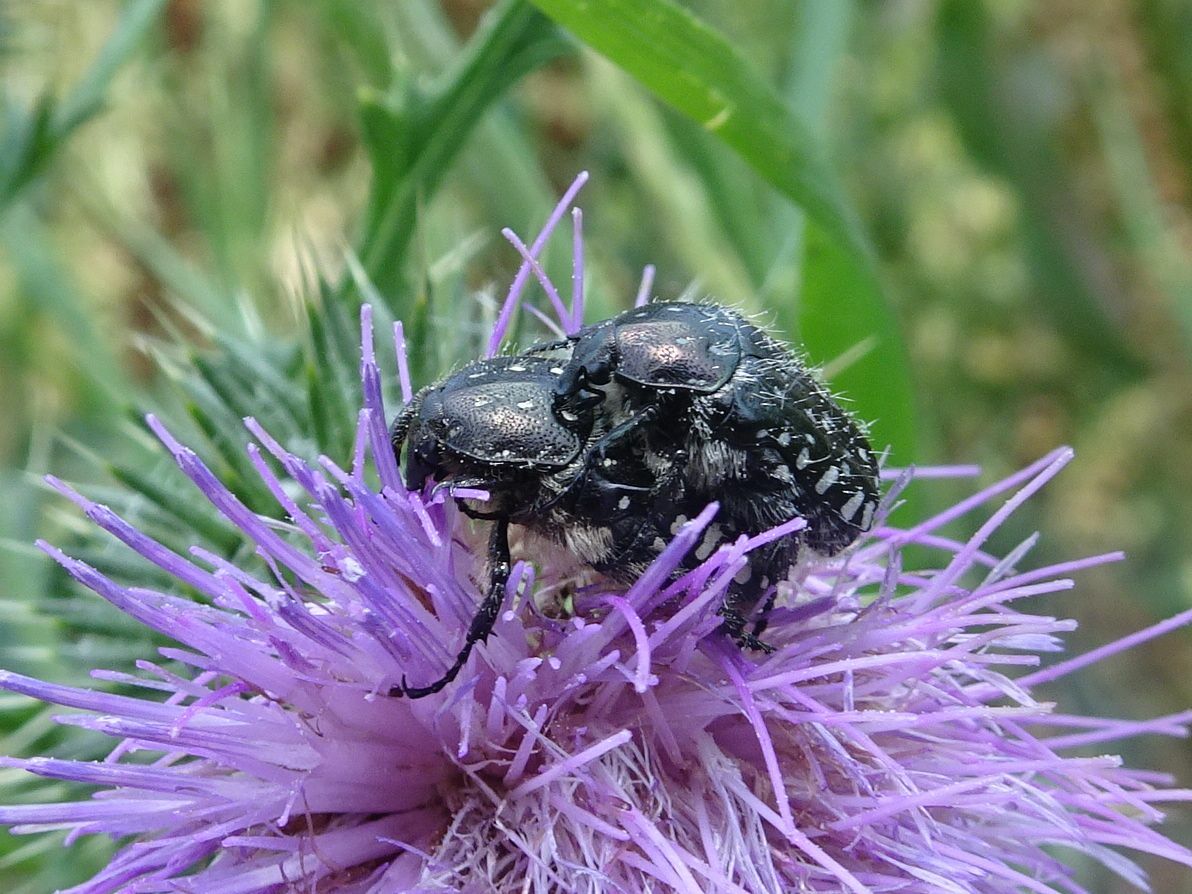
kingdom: Animalia
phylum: Arthropoda
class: Insecta
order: Coleoptera
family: Scarabaeidae
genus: Oxythyrea
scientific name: Oxythyrea funesta
